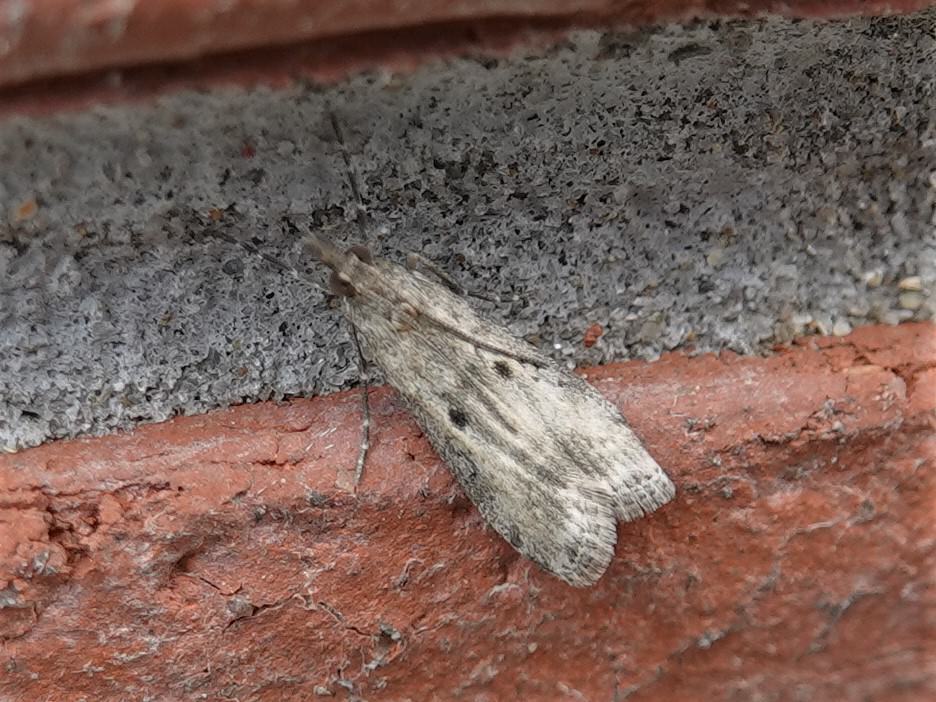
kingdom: Animalia
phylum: Arthropoda
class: Insecta
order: Lepidoptera
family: Crambidae
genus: Eudonia
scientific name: Eudonia leptalea
